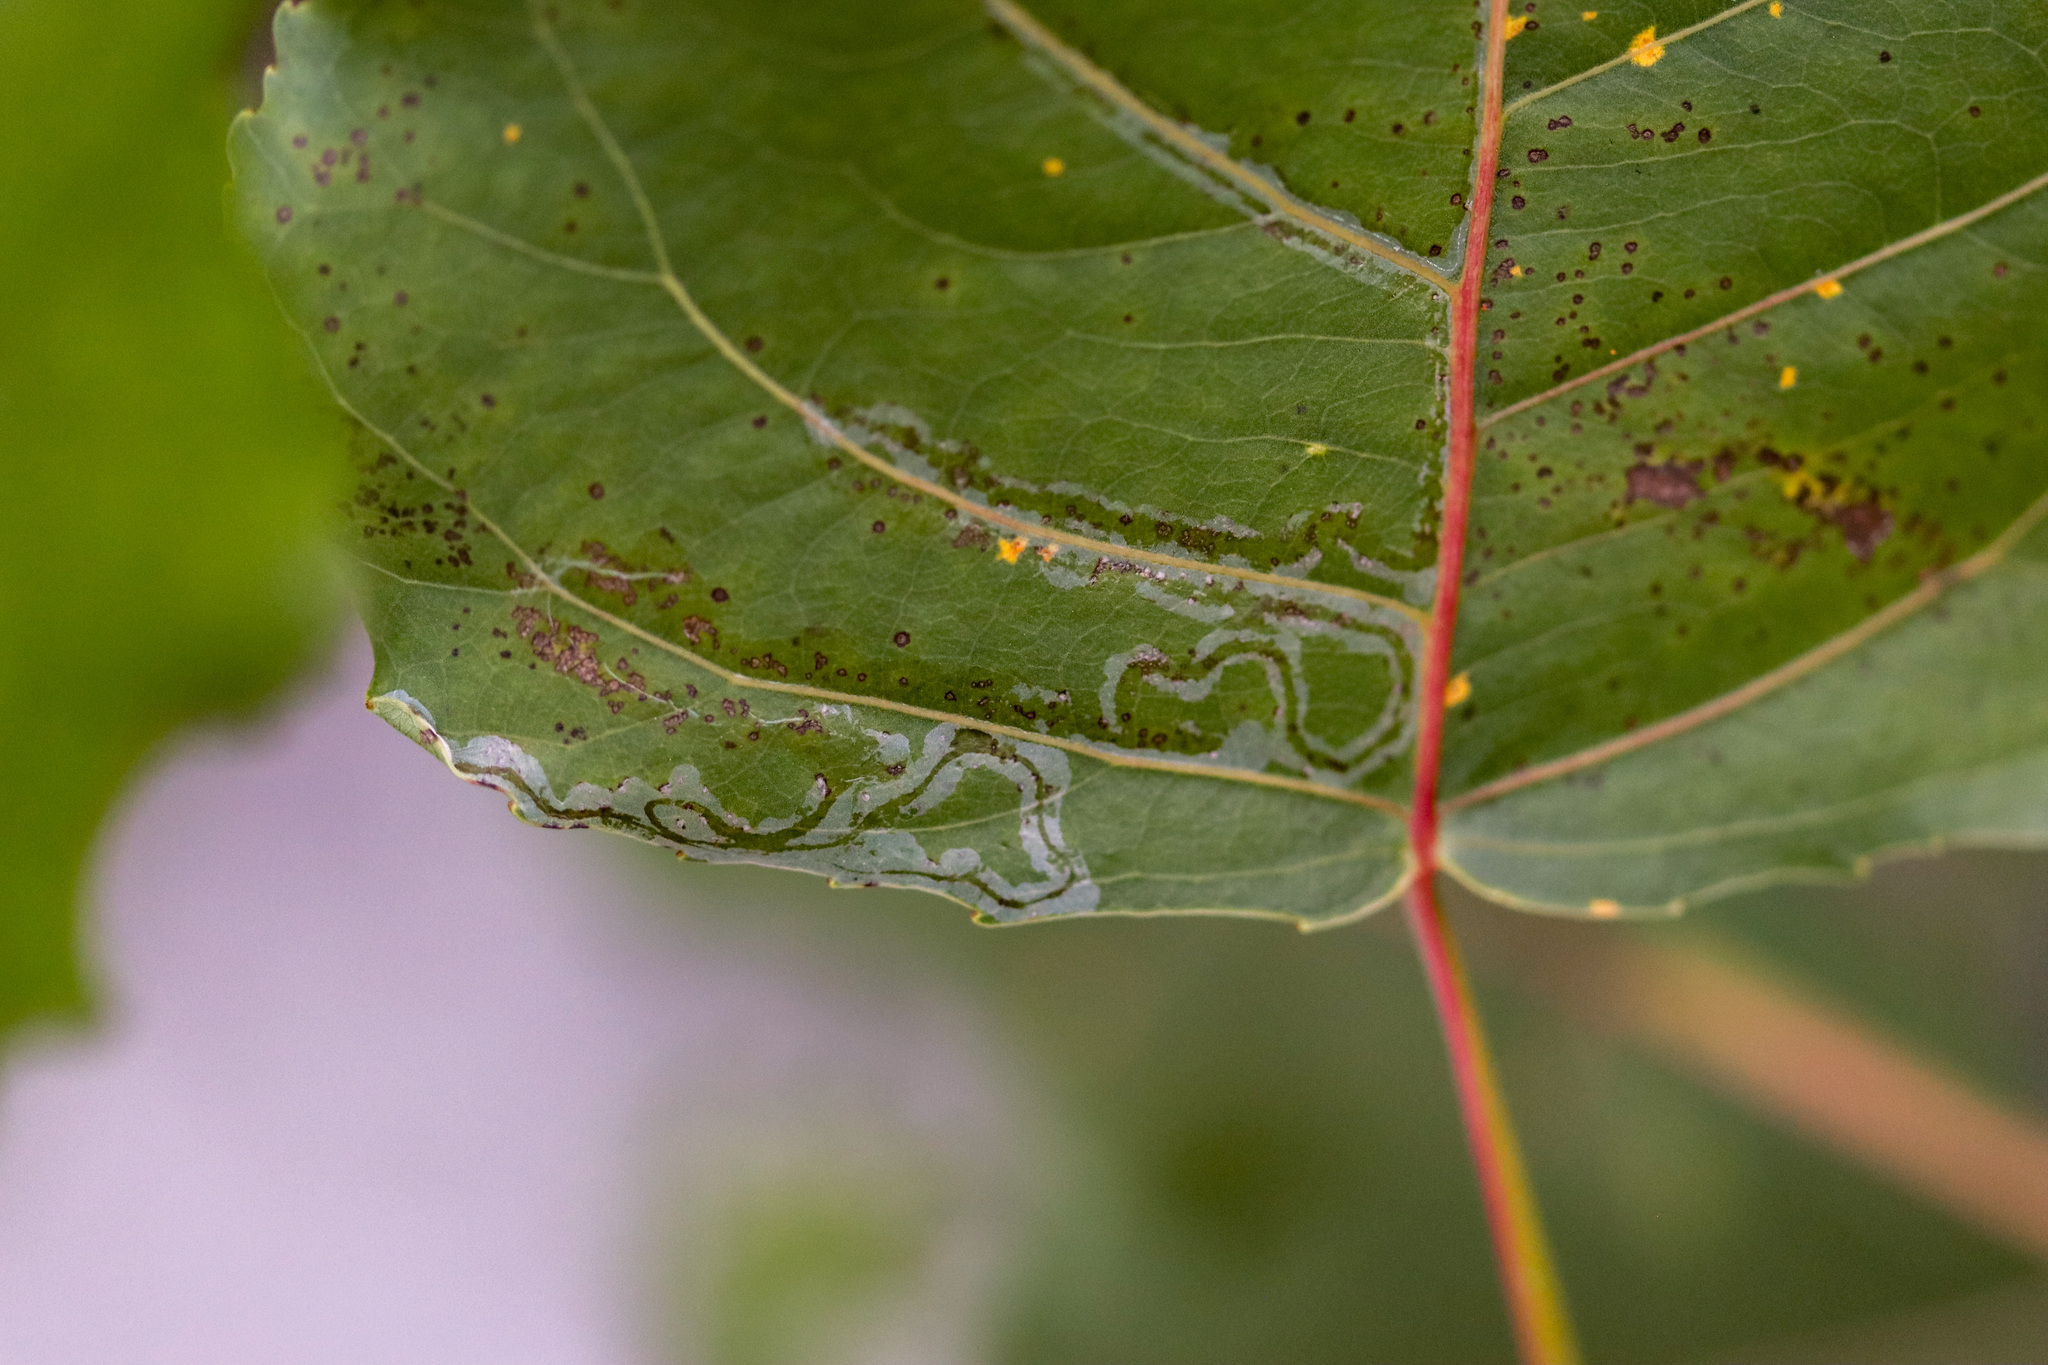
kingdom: Animalia
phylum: Arthropoda
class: Insecta
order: Lepidoptera
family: Gracillariidae
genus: Phyllocnistis
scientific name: Phyllocnistis populiella
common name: Aspen serpentine leafminer moth
